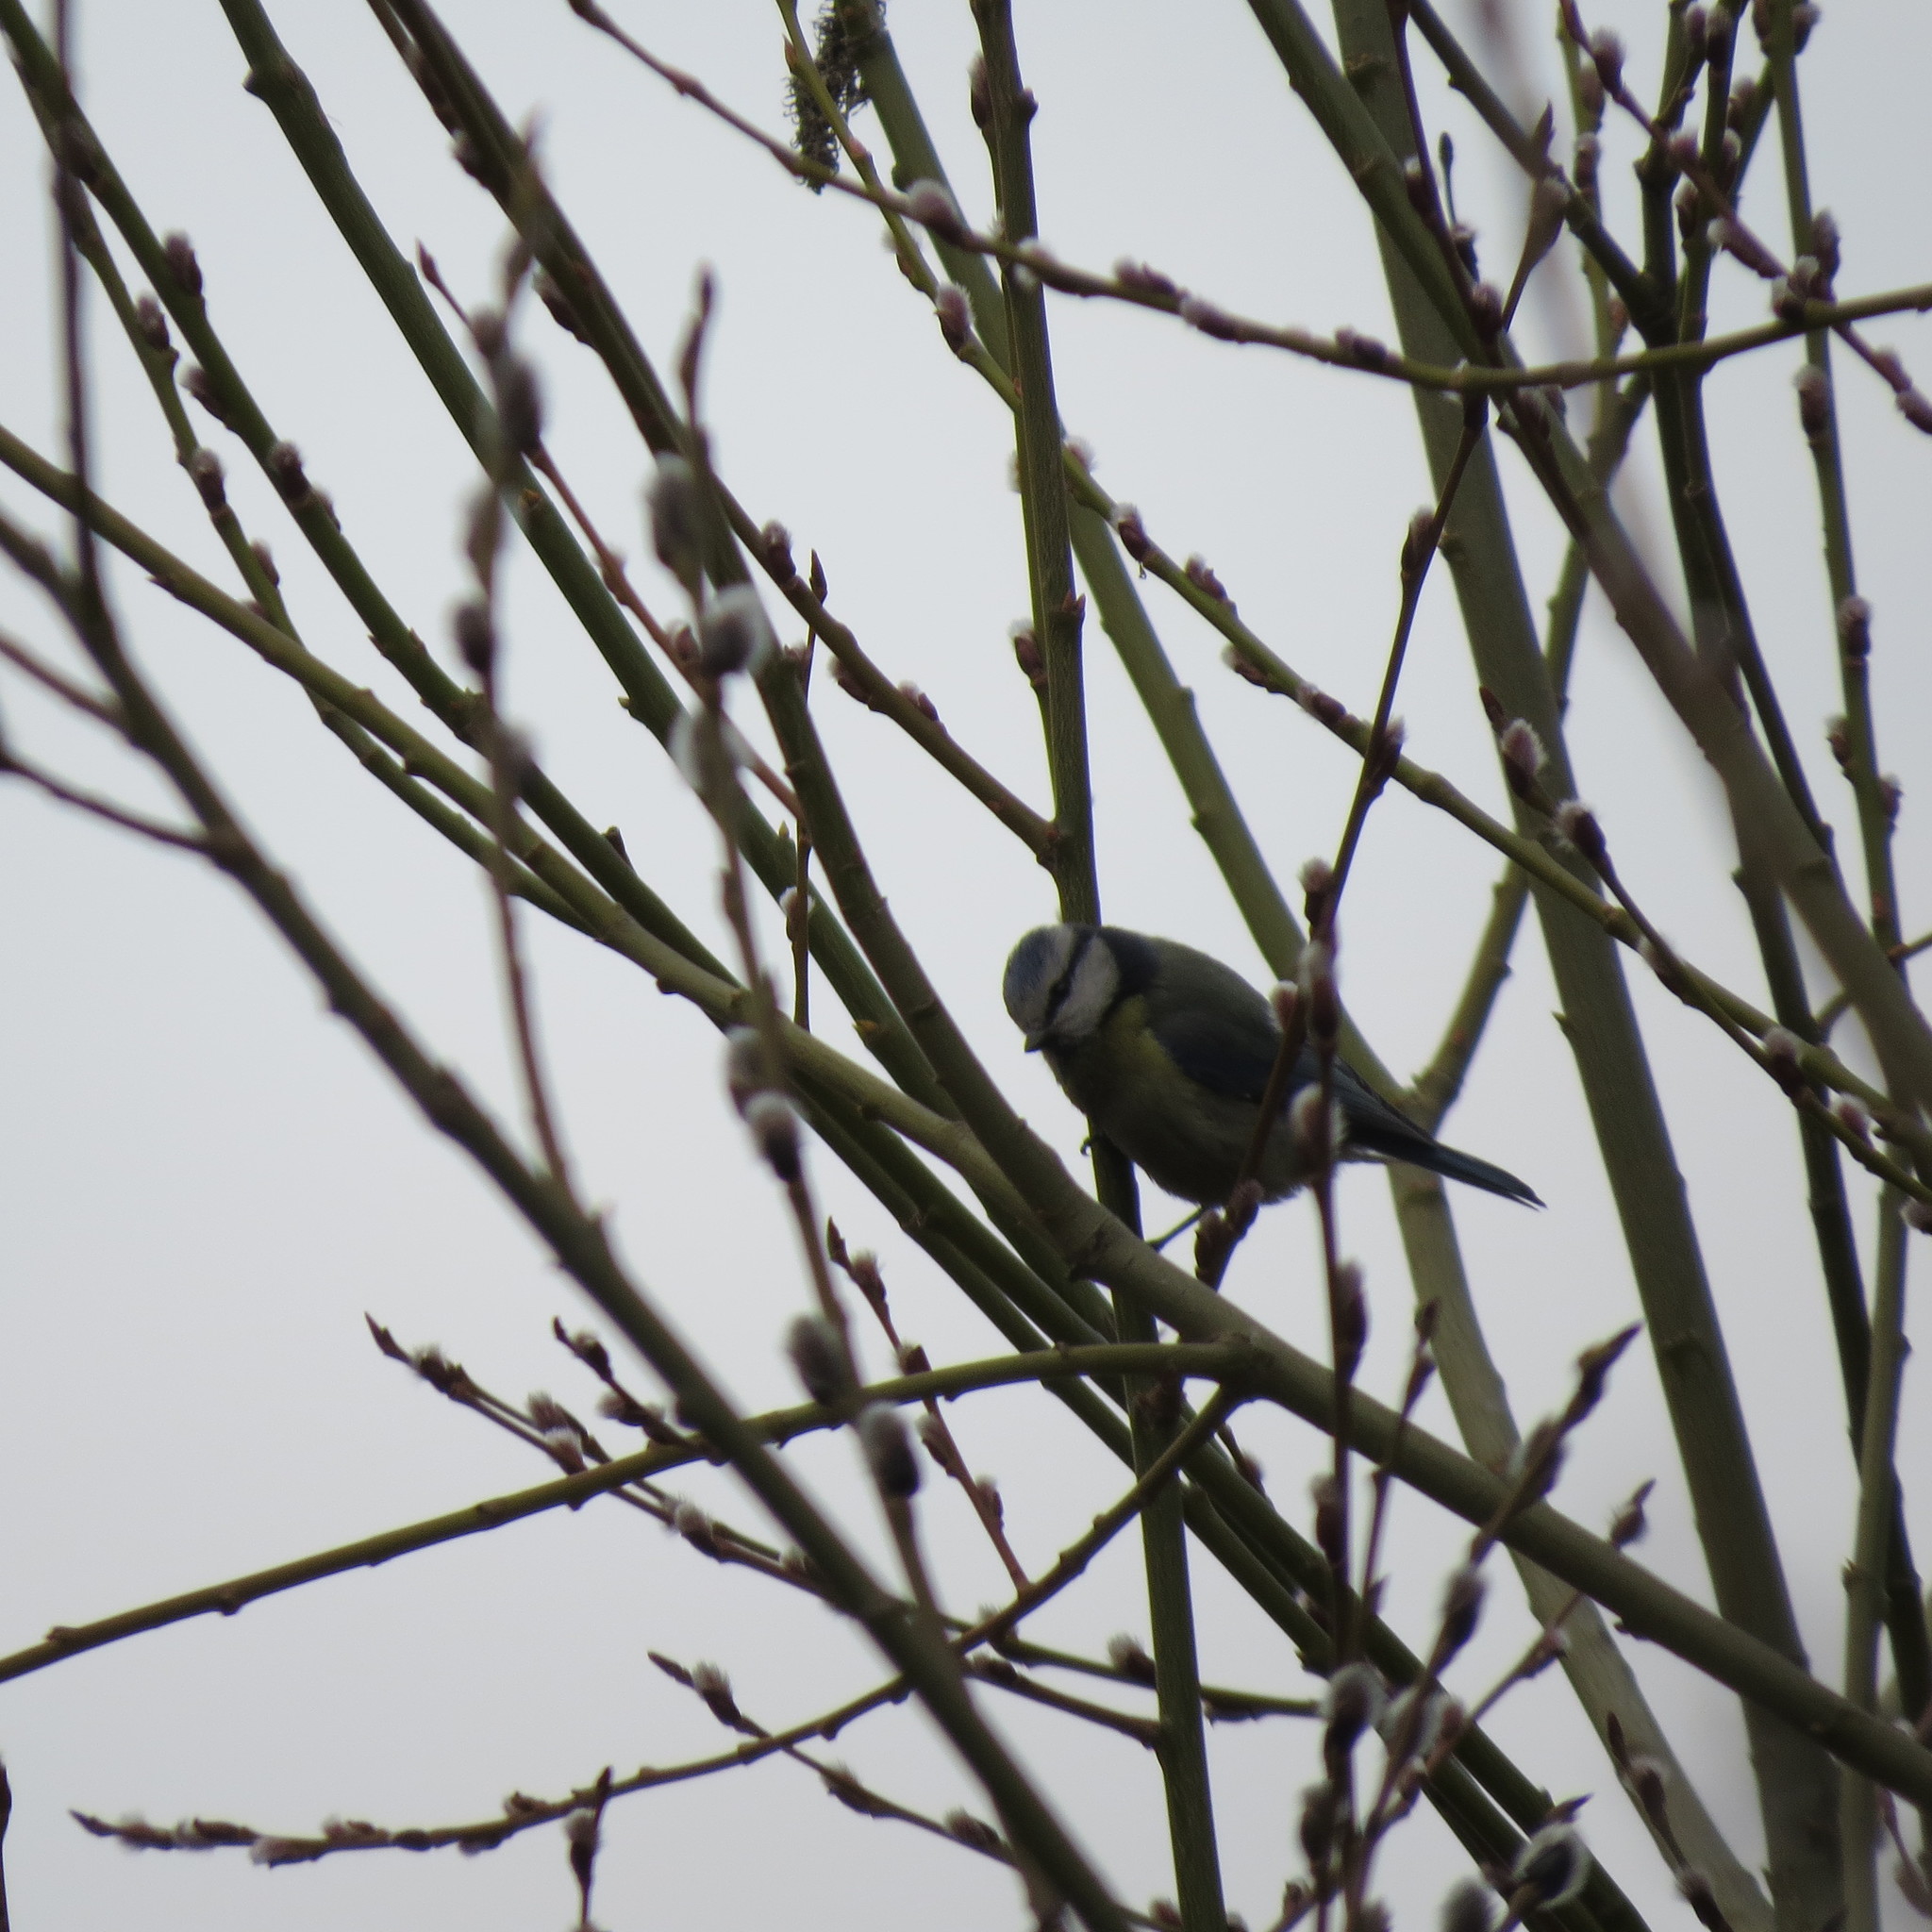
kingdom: Animalia
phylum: Chordata
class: Aves
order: Passeriformes
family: Paridae
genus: Cyanistes
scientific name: Cyanistes caeruleus
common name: Eurasian blue tit
